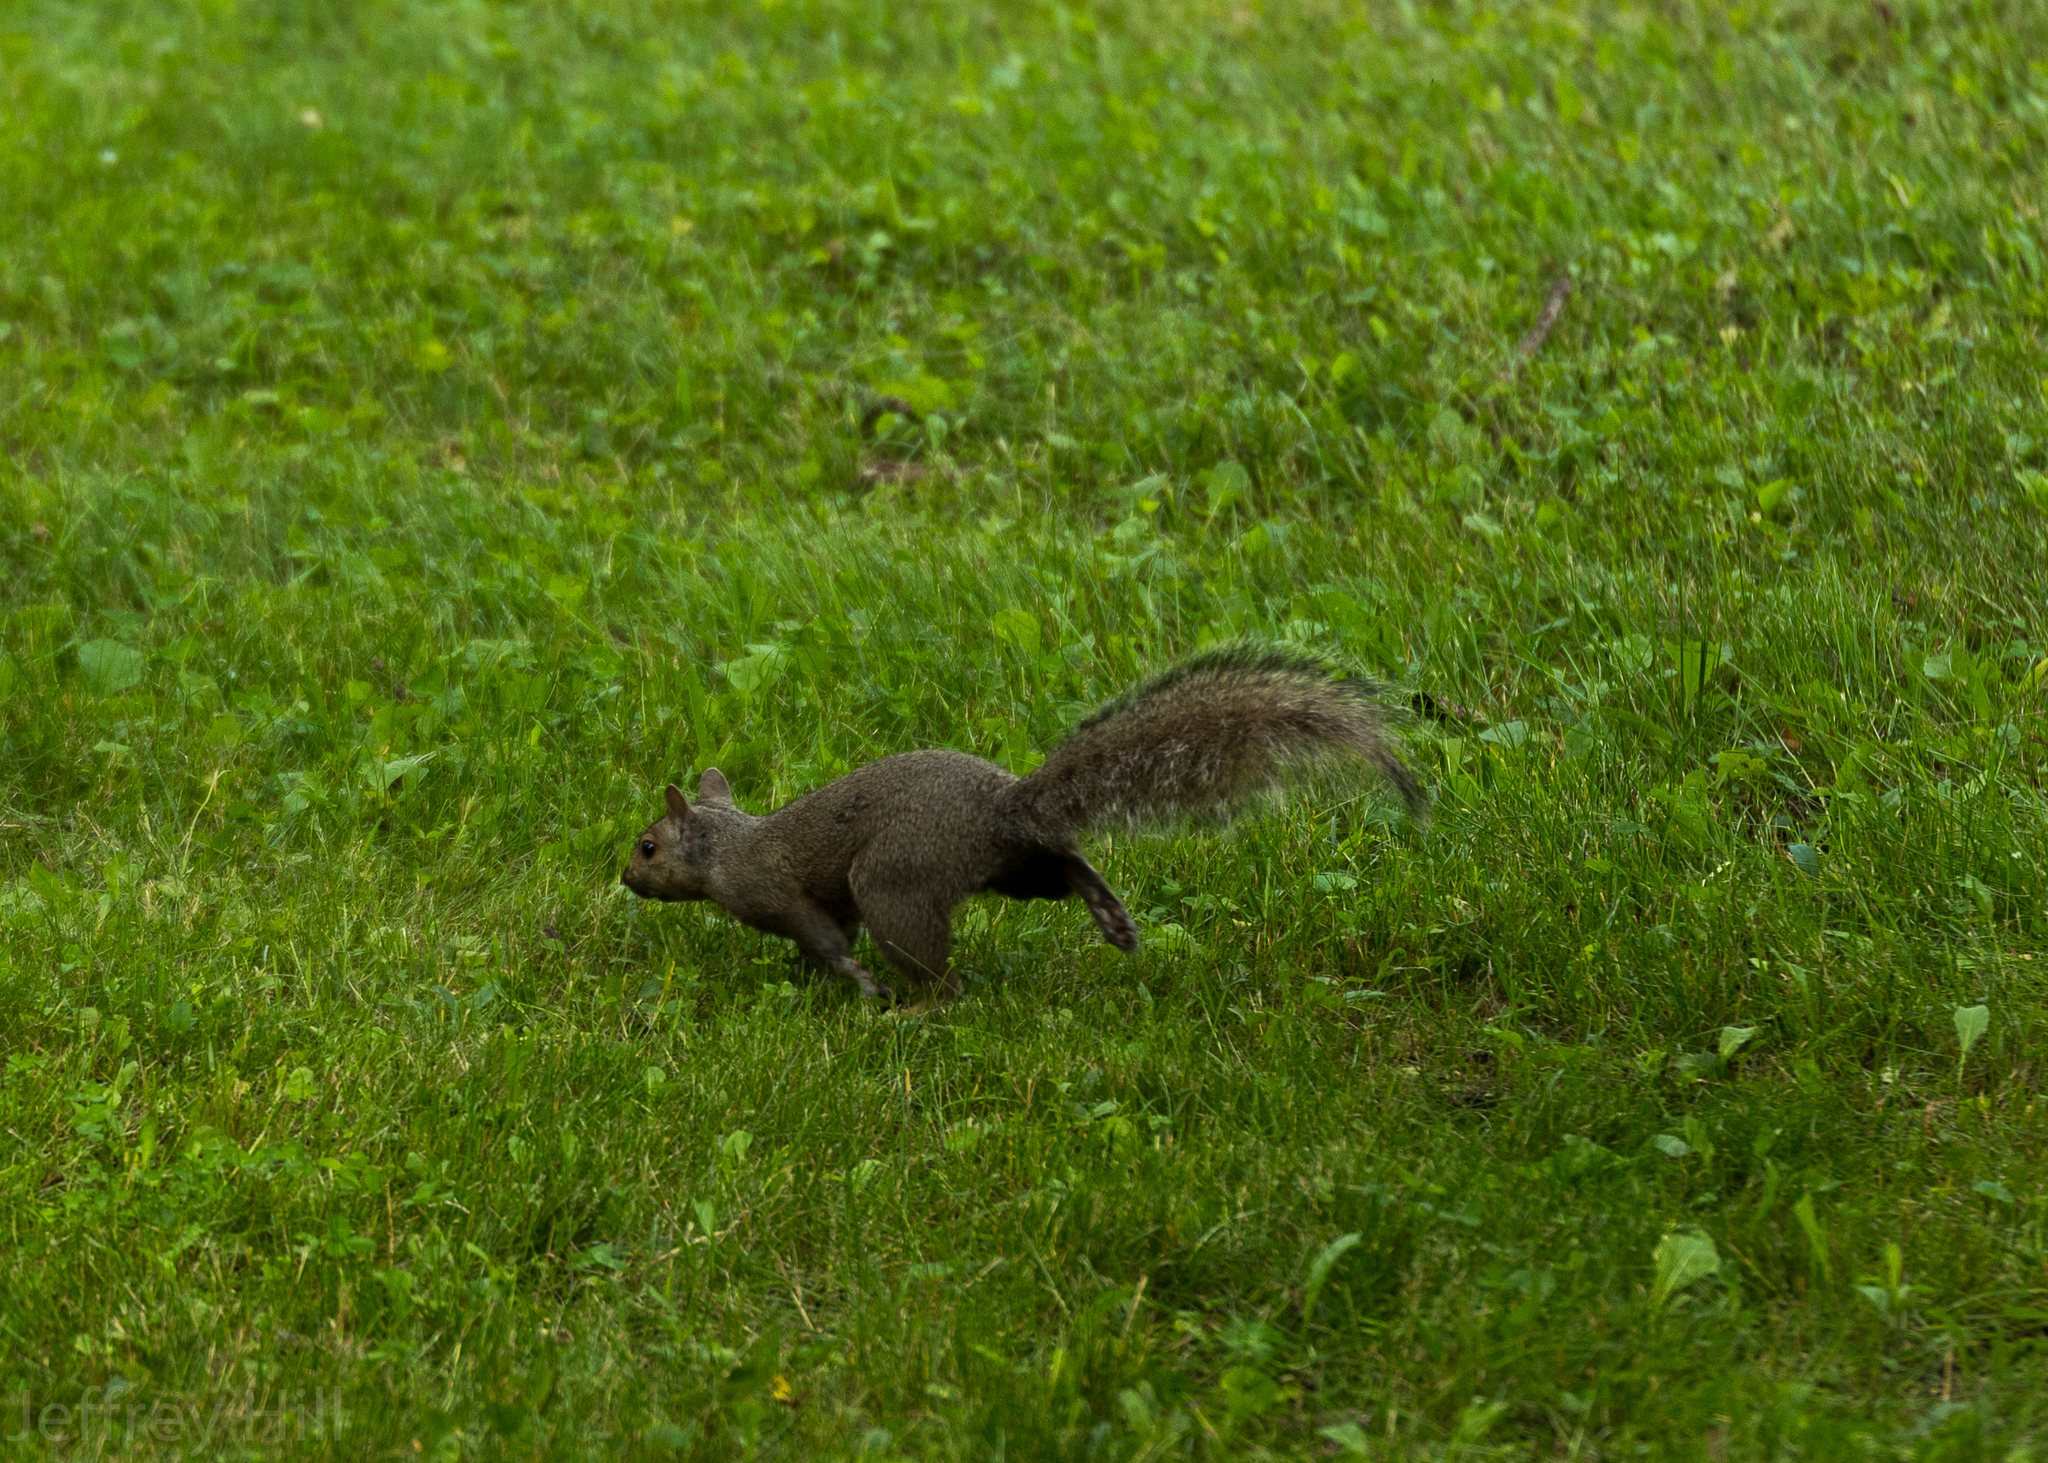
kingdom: Animalia
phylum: Chordata
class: Mammalia
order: Rodentia
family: Sciuridae
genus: Sciurus
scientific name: Sciurus carolinensis
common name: Eastern gray squirrel
